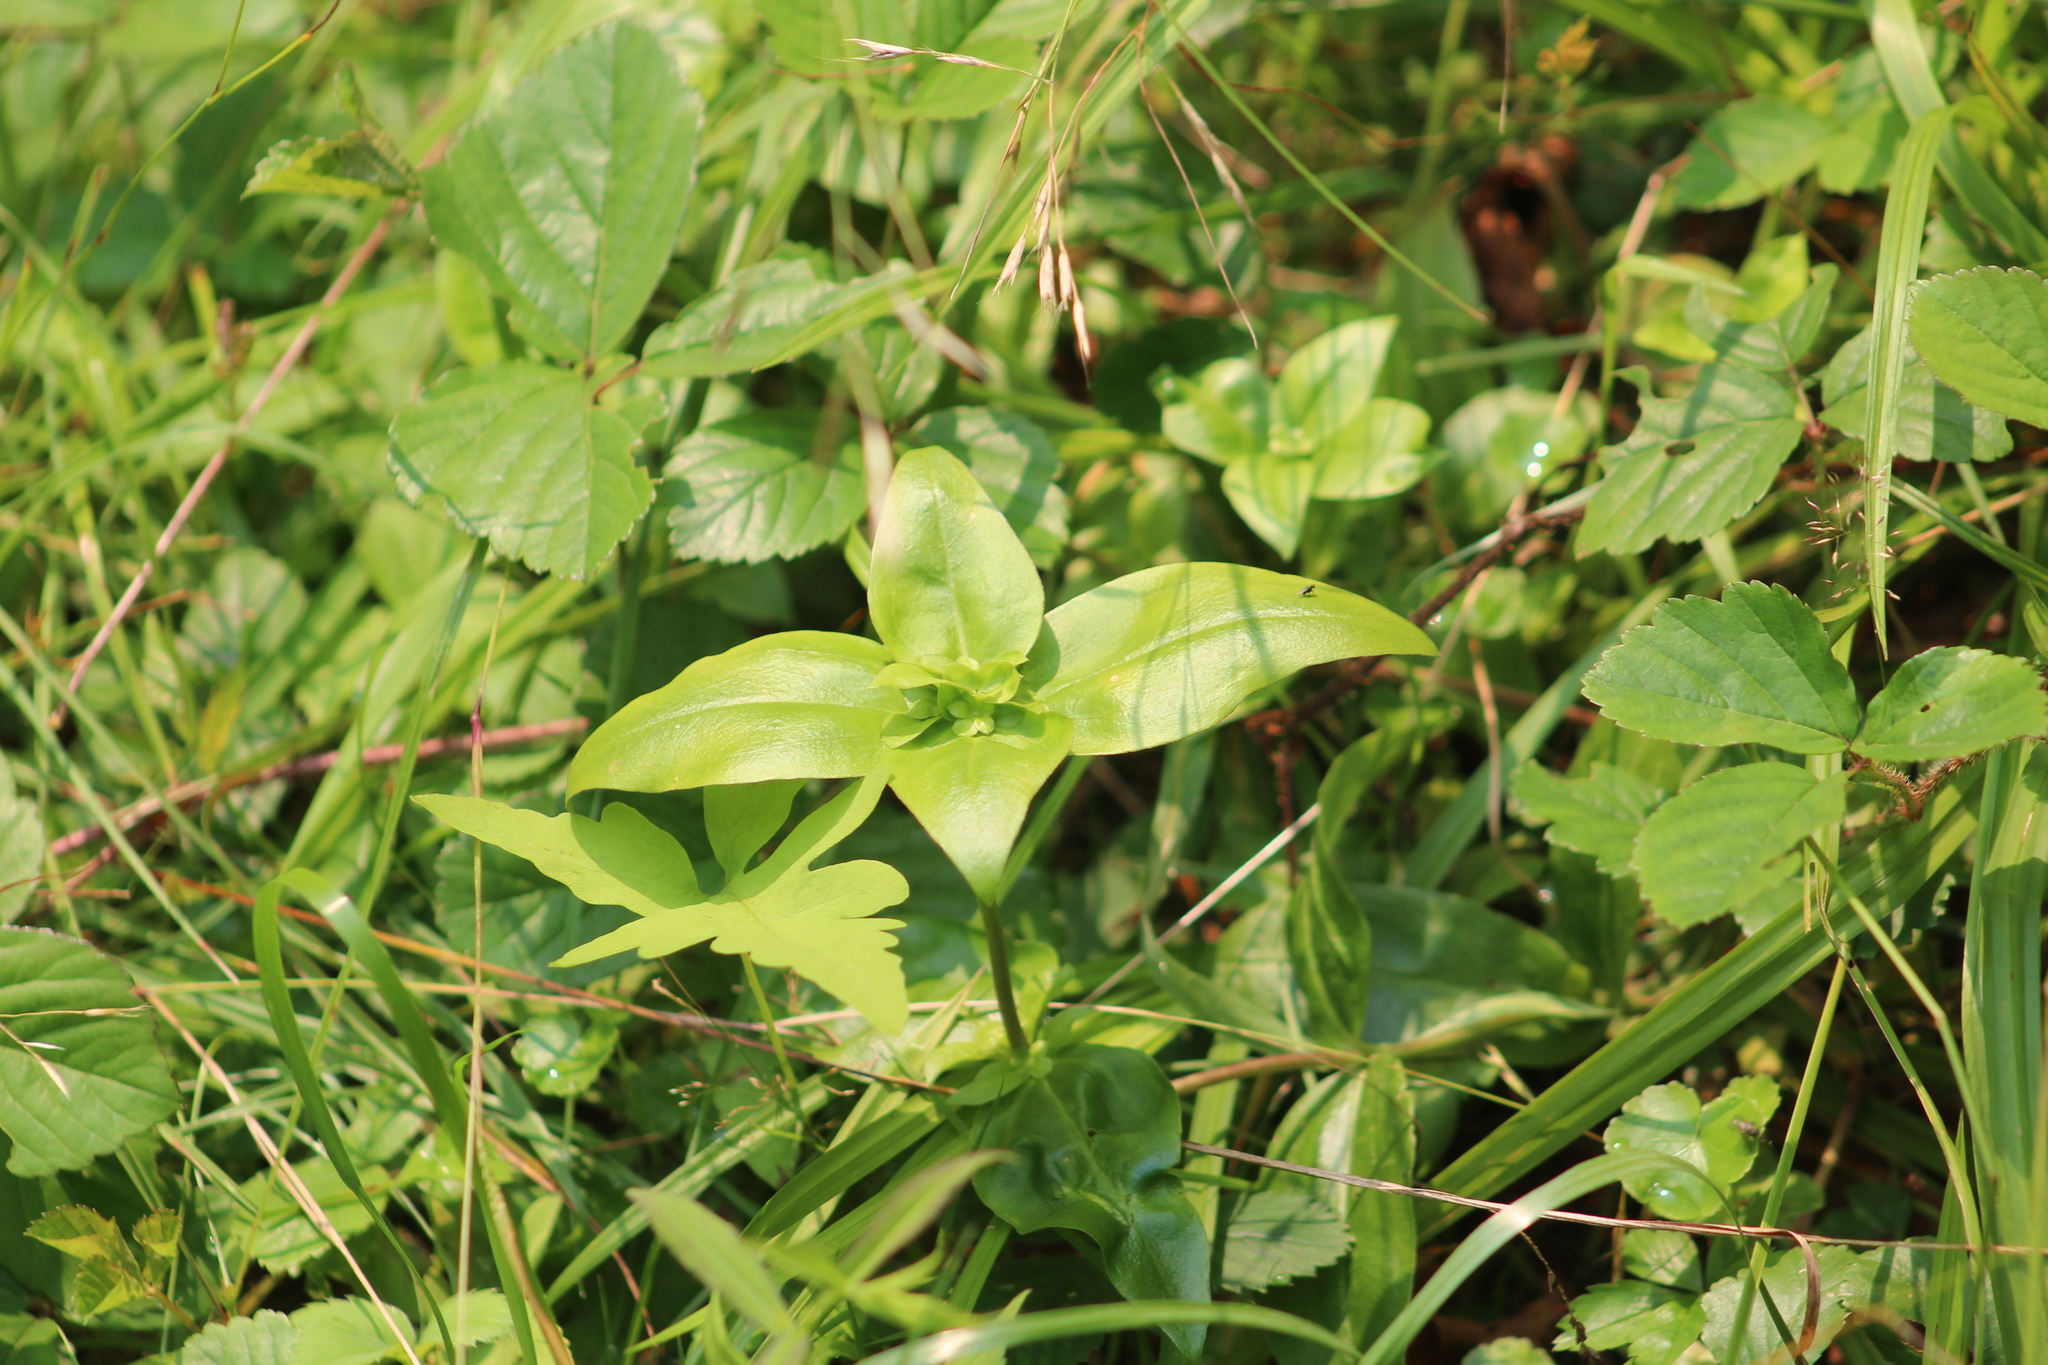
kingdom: Plantae
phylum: Tracheophyta
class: Magnoliopsida
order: Gentianales
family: Gentianaceae
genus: Gentiana
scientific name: Gentiana clausa
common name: Blind gentian
